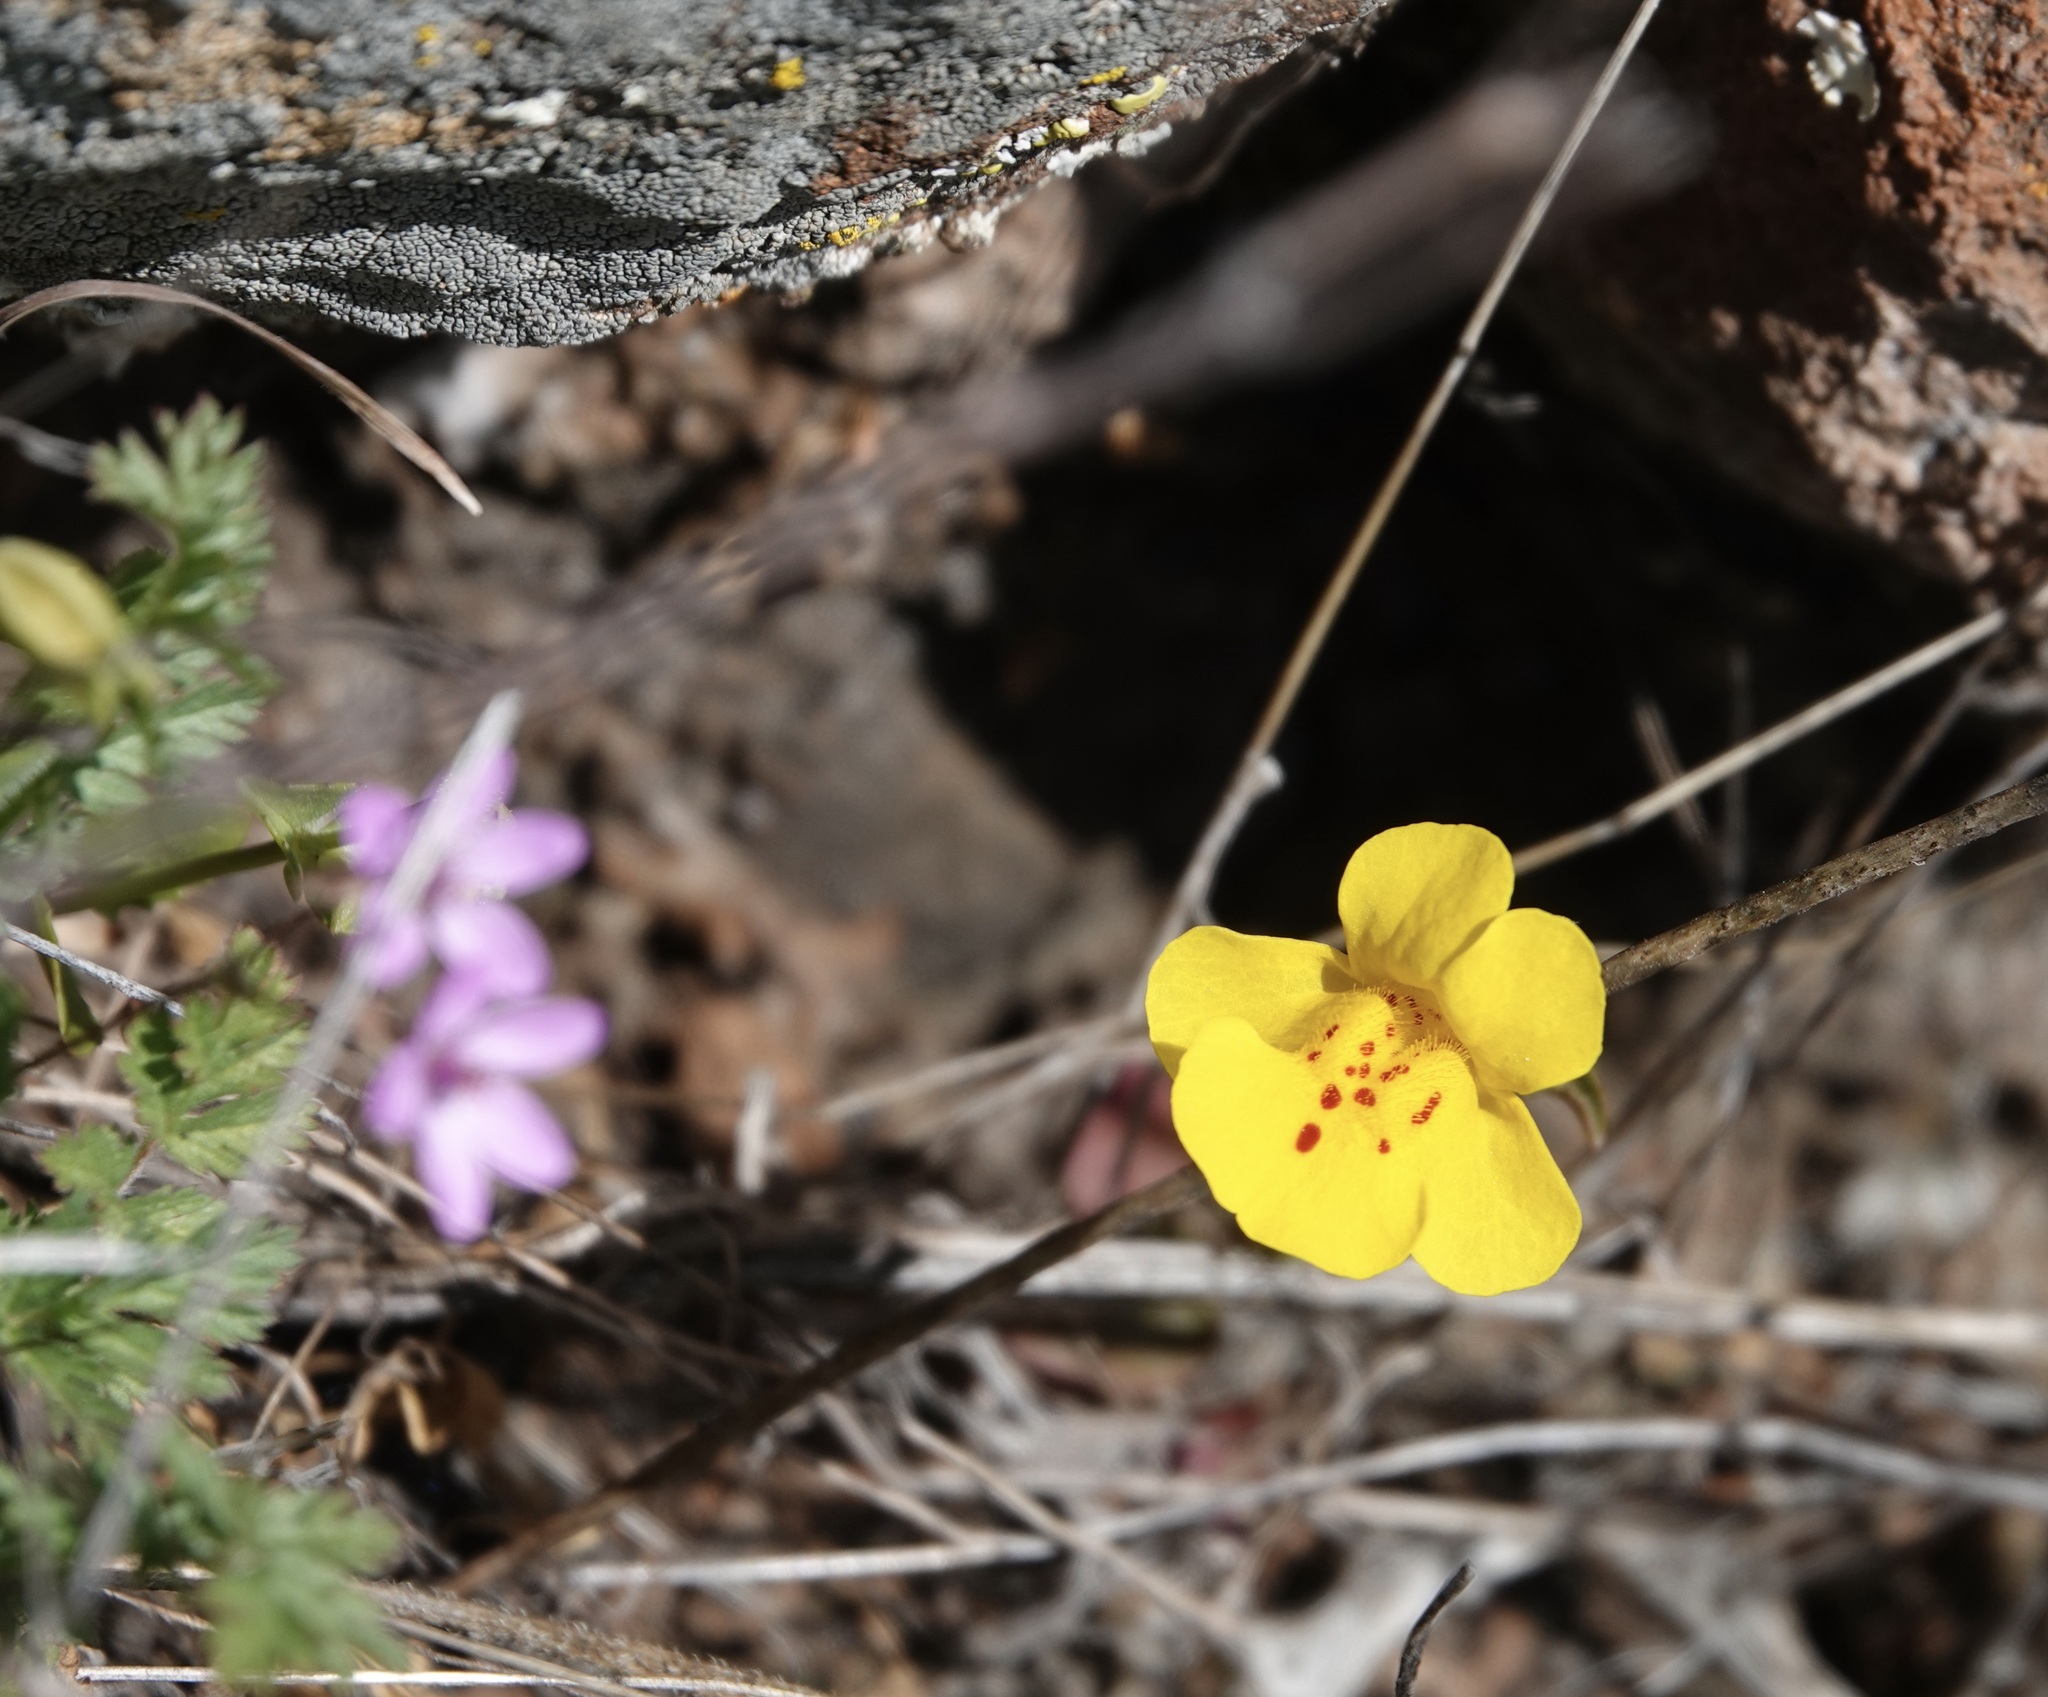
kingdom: Plantae
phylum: Tracheophyta
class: Magnoliopsida
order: Lamiales
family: Phrymaceae
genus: Erythranthe
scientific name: Erythranthe guttata
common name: Monkeyflower
